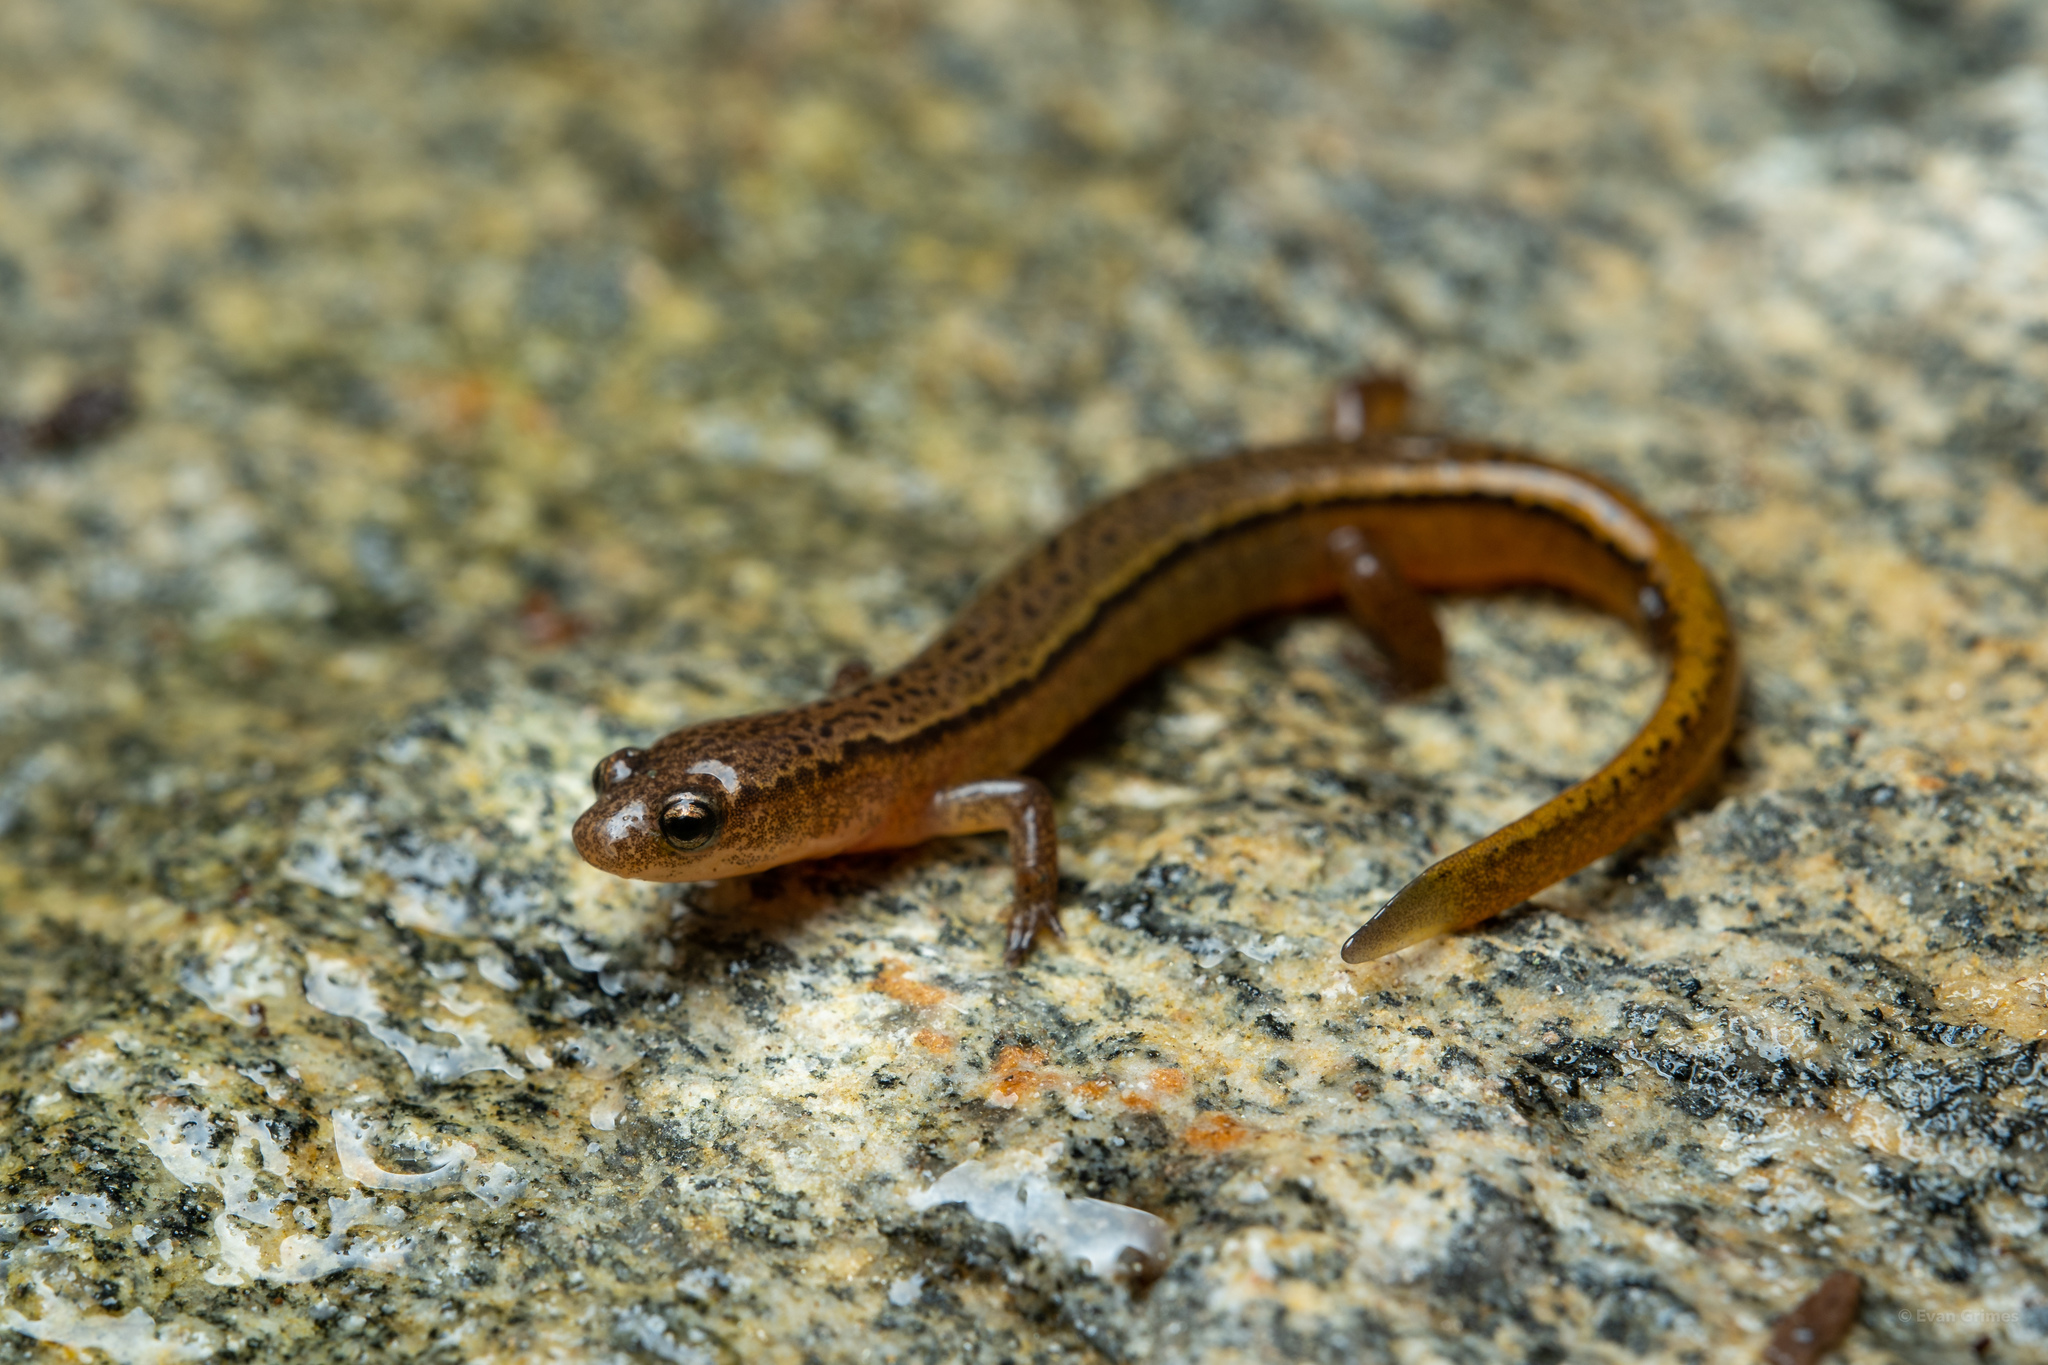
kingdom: Animalia
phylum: Chordata
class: Amphibia
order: Caudata
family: Plethodontidae
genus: Eurycea
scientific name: Eurycea wilderae
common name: Blue ridge two-lined salamander
